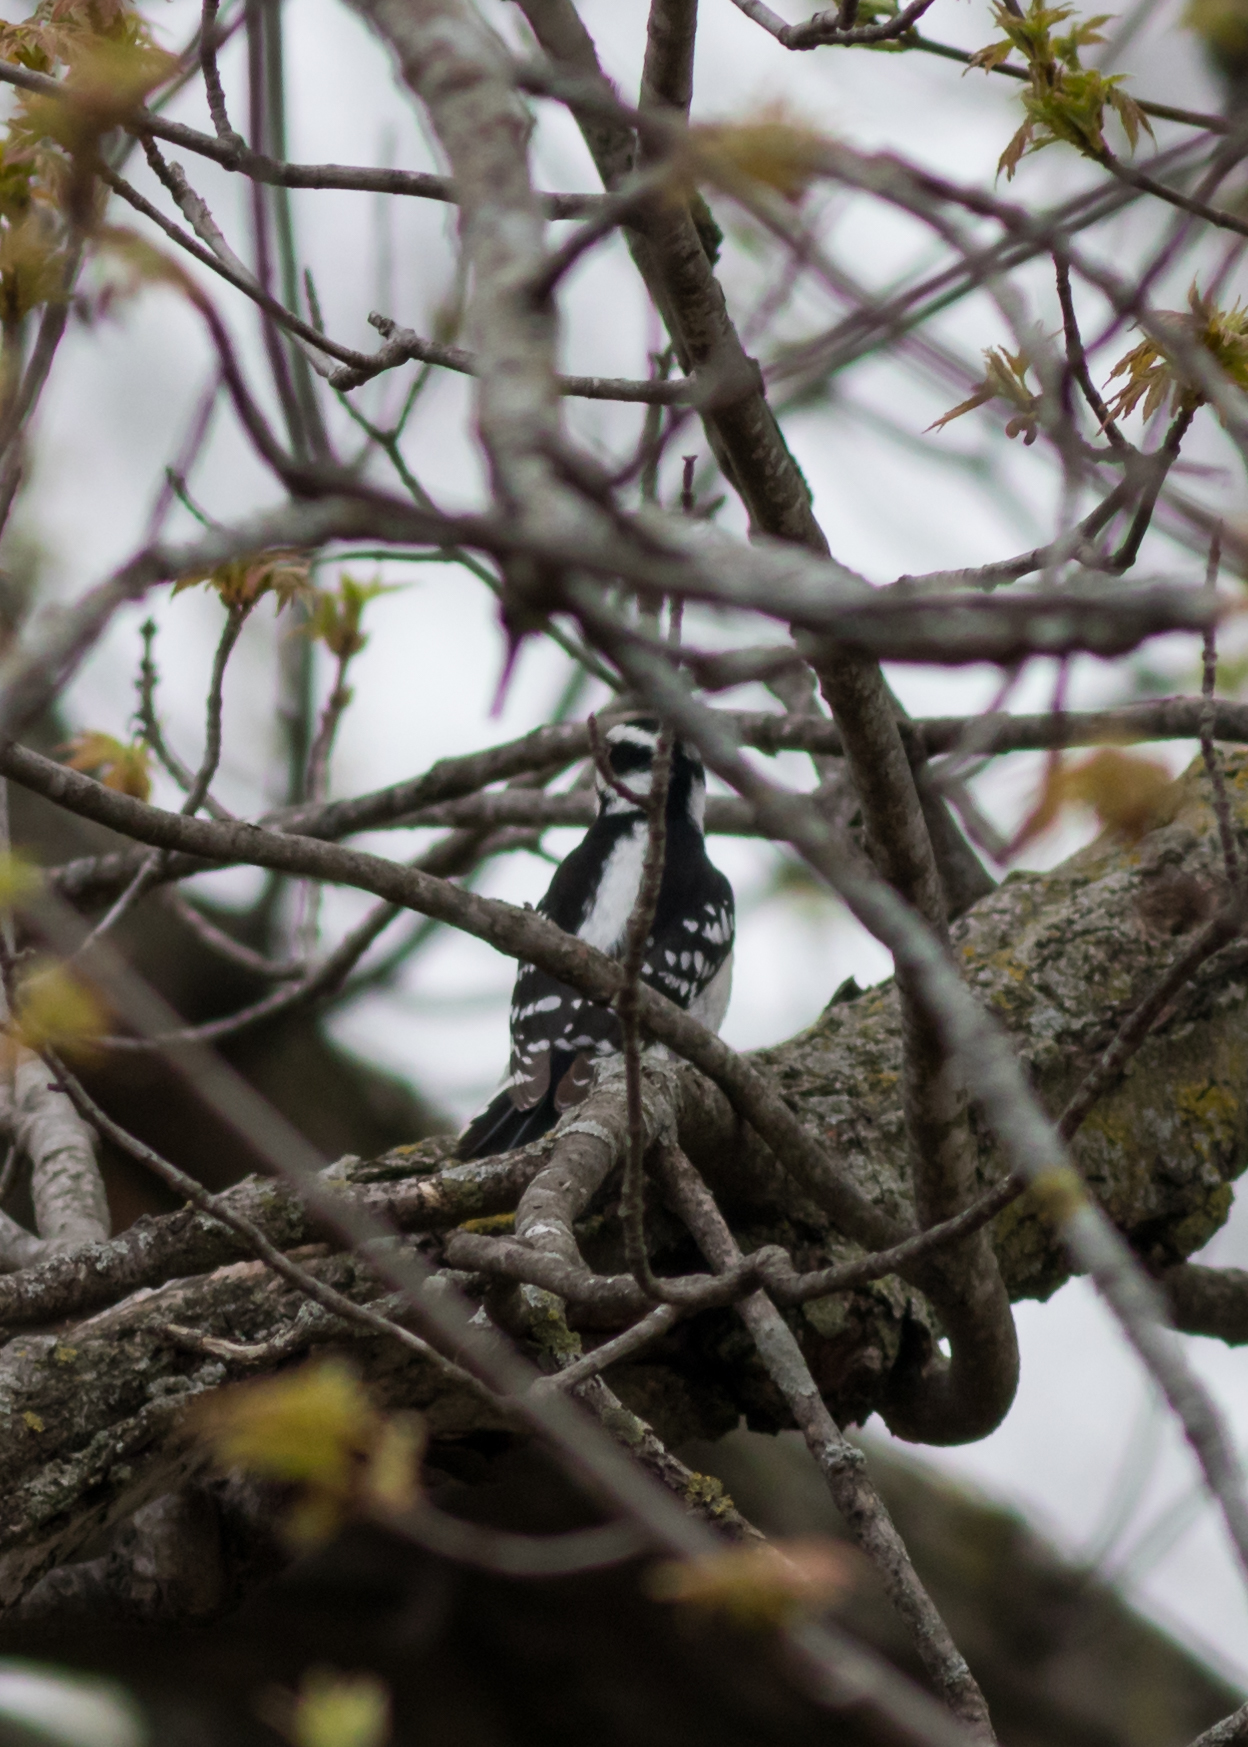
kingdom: Animalia
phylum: Chordata
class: Aves
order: Piciformes
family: Picidae
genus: Dryobates
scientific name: Dryobates pubescens
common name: Downy woodpecker
